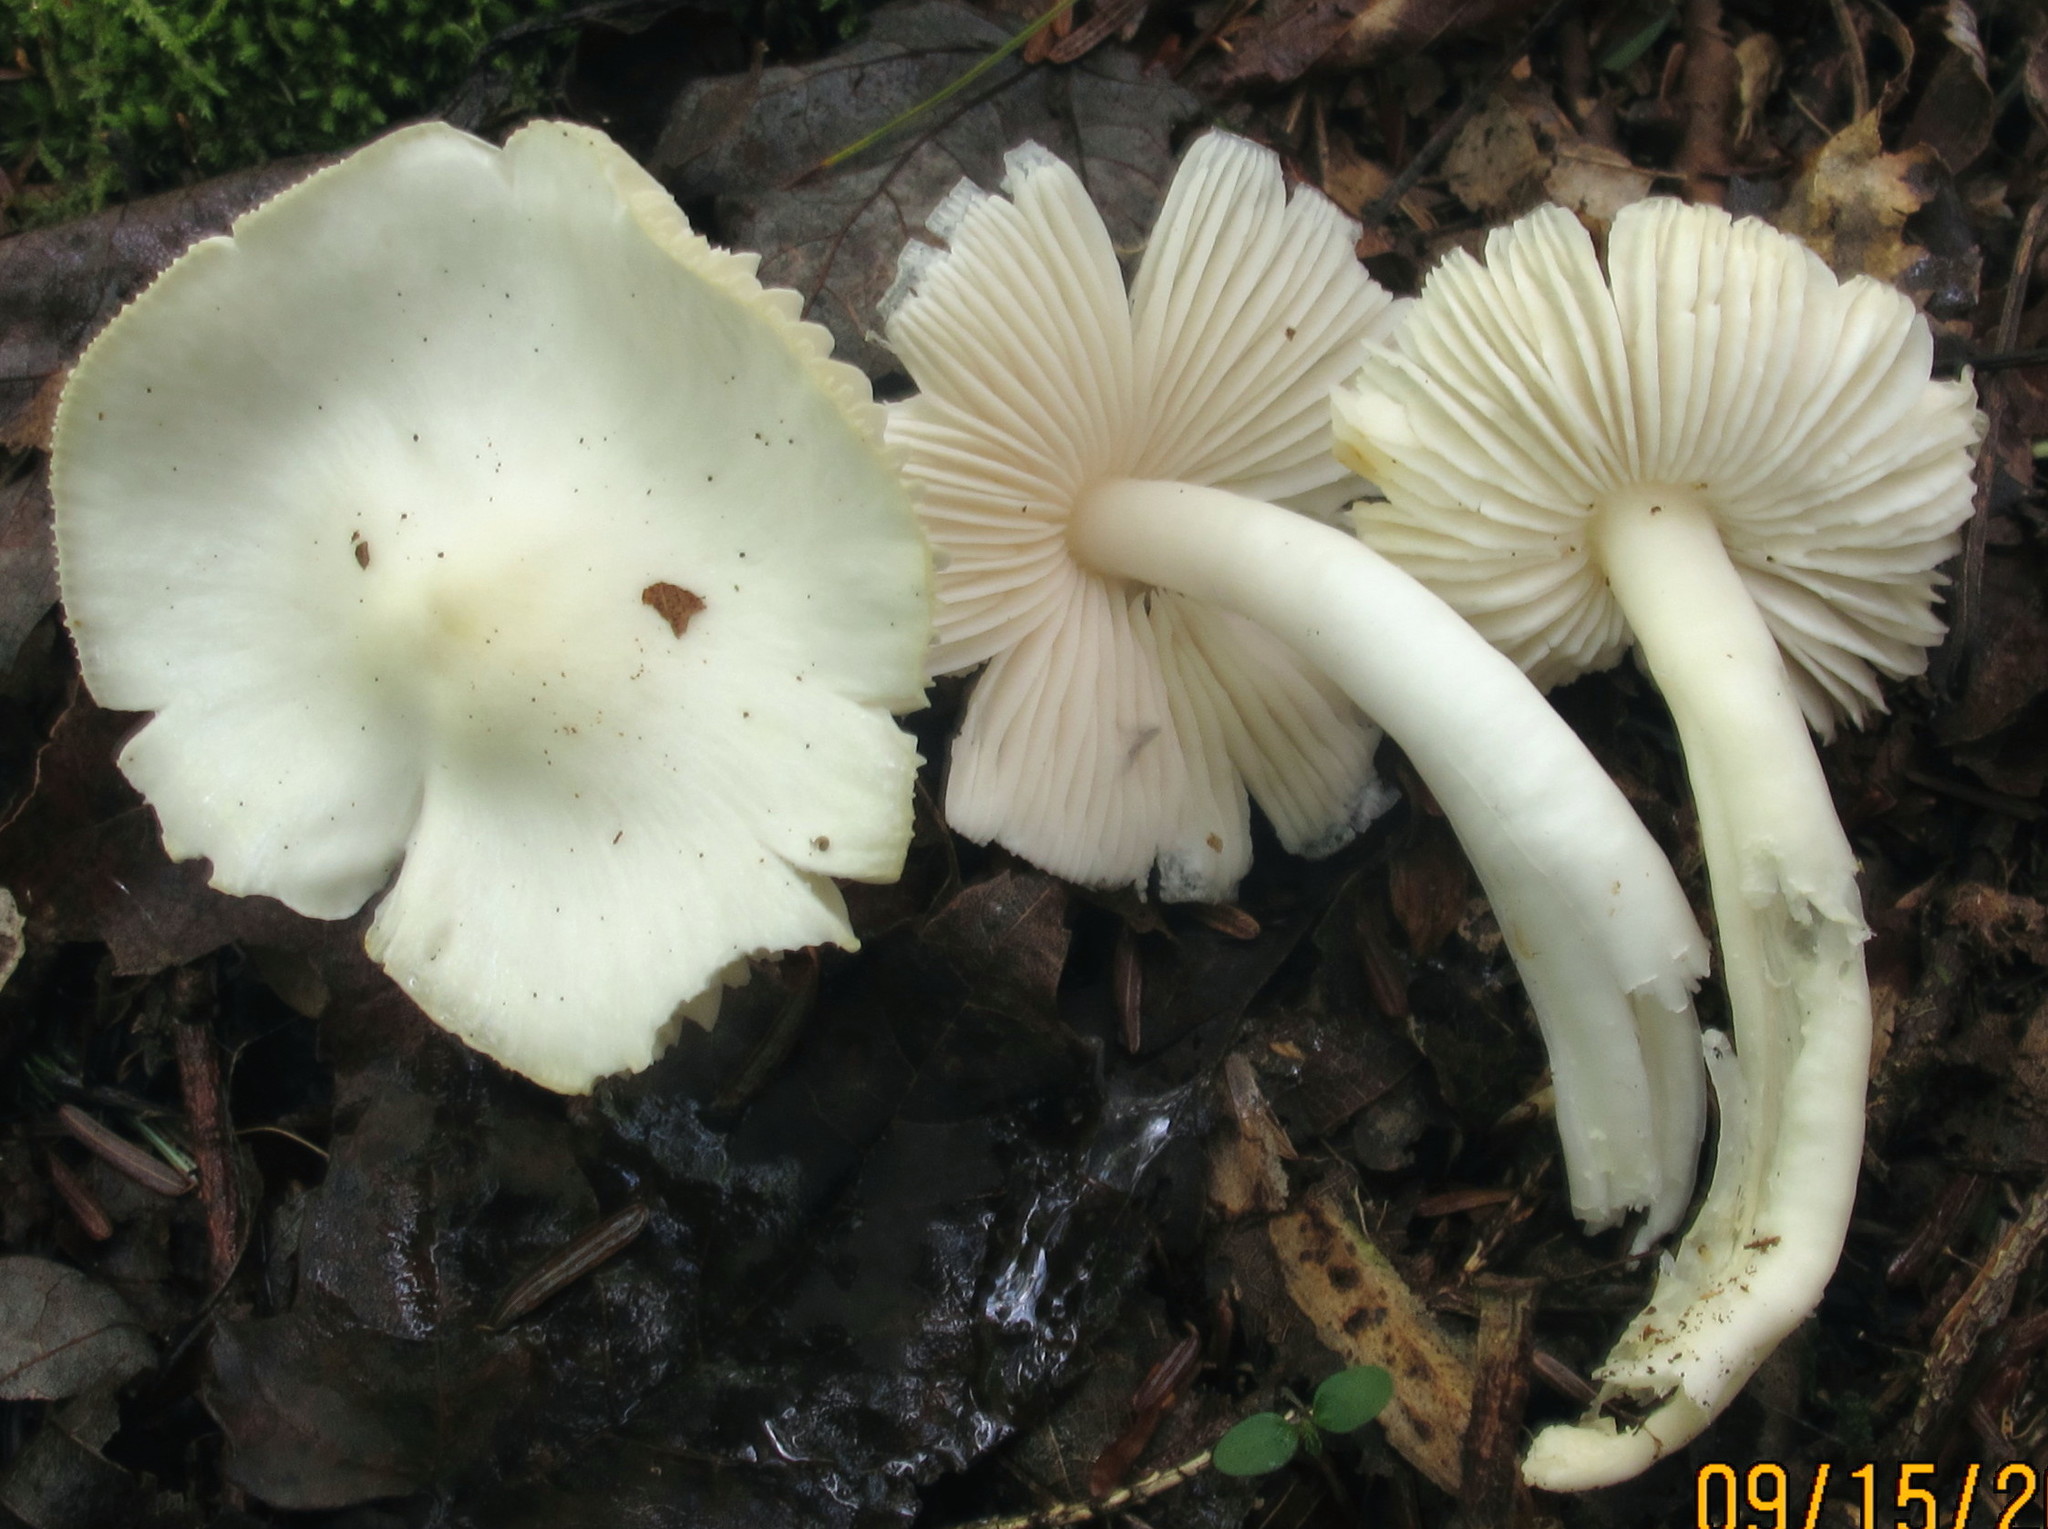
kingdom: Fungi
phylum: Basidiomycota
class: Agaricomycetes
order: Agaricales
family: Hygrophoraceae
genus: Hygrophorus
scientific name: Hygrophorus eburneus
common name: Ivory wax-cap
